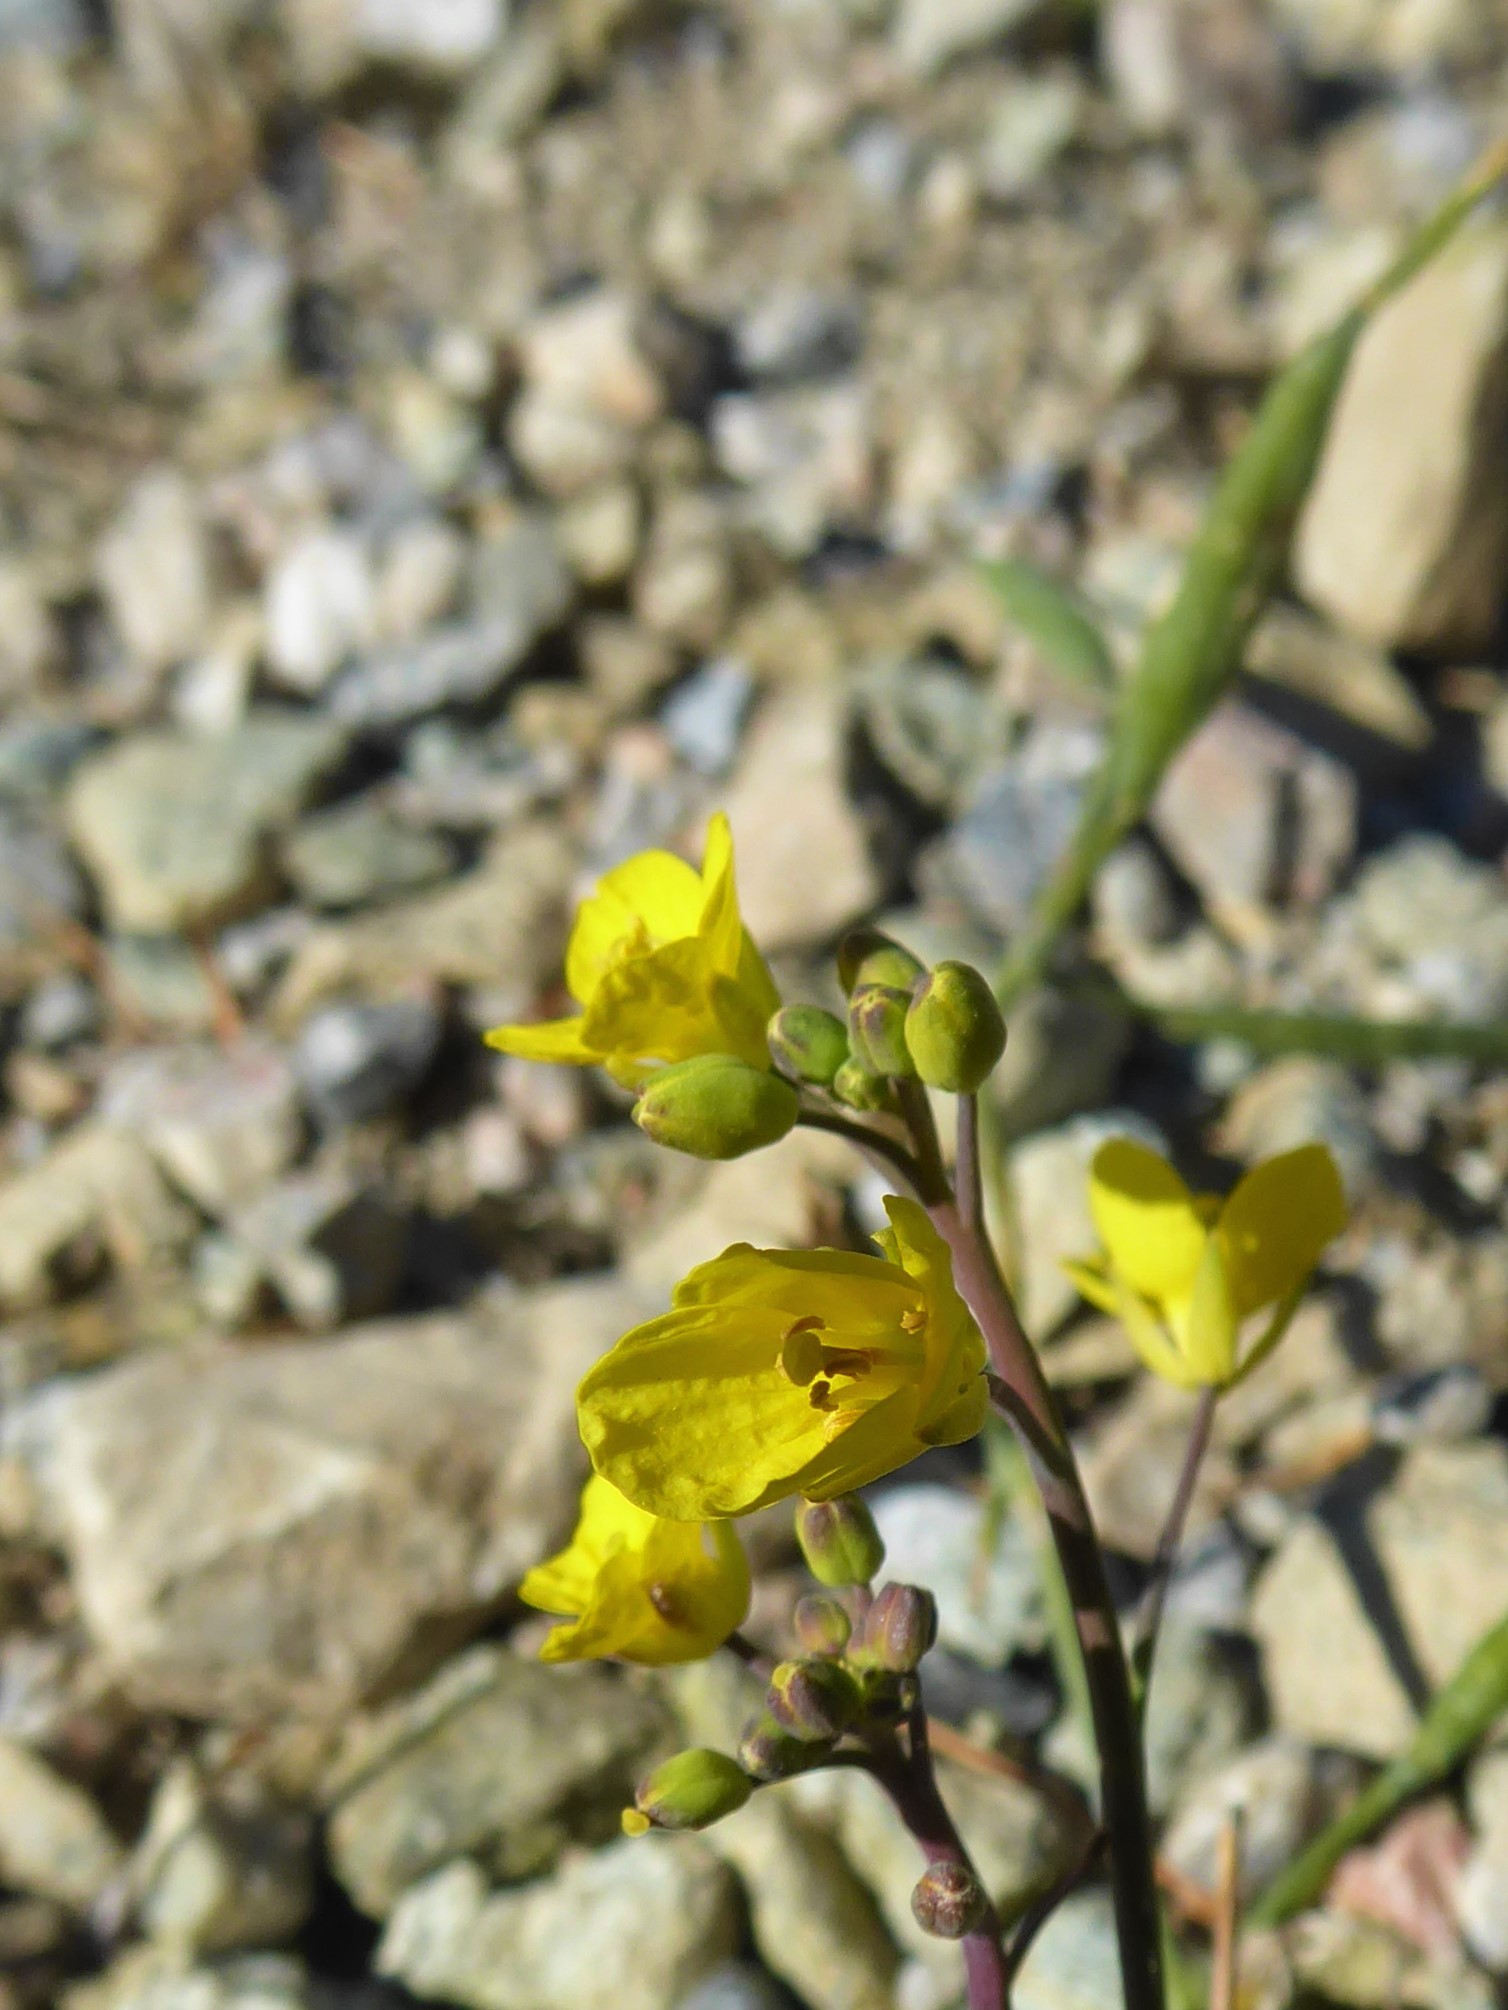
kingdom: Plantae
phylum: Tracheophyta
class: Magnoliopsida
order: Brassicales
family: Brassicaceae
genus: Brassica
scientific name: Brassica rapa
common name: Field mustard
